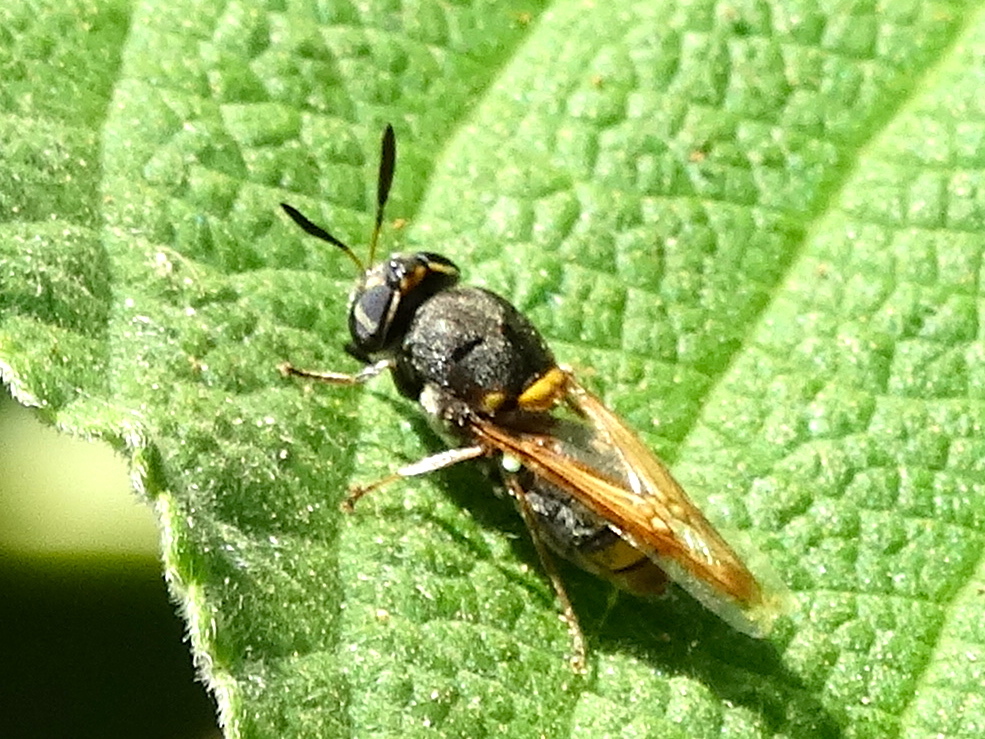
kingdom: Animalia
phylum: Arthropoda
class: Insecta
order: Diptera
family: Stratiomyidae
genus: Hoplitimyia
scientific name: Hoplitimyia
